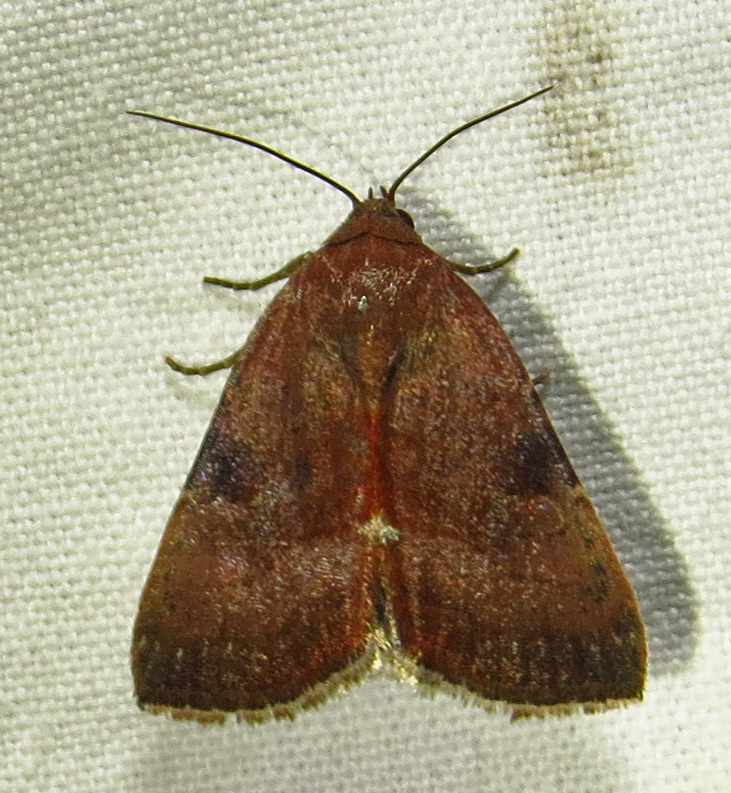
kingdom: Animalia
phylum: Arthropoda
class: Insecta
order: Lepidoptera
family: Noctuidae
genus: Galgula
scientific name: Galgula partita
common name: Wedgeling
